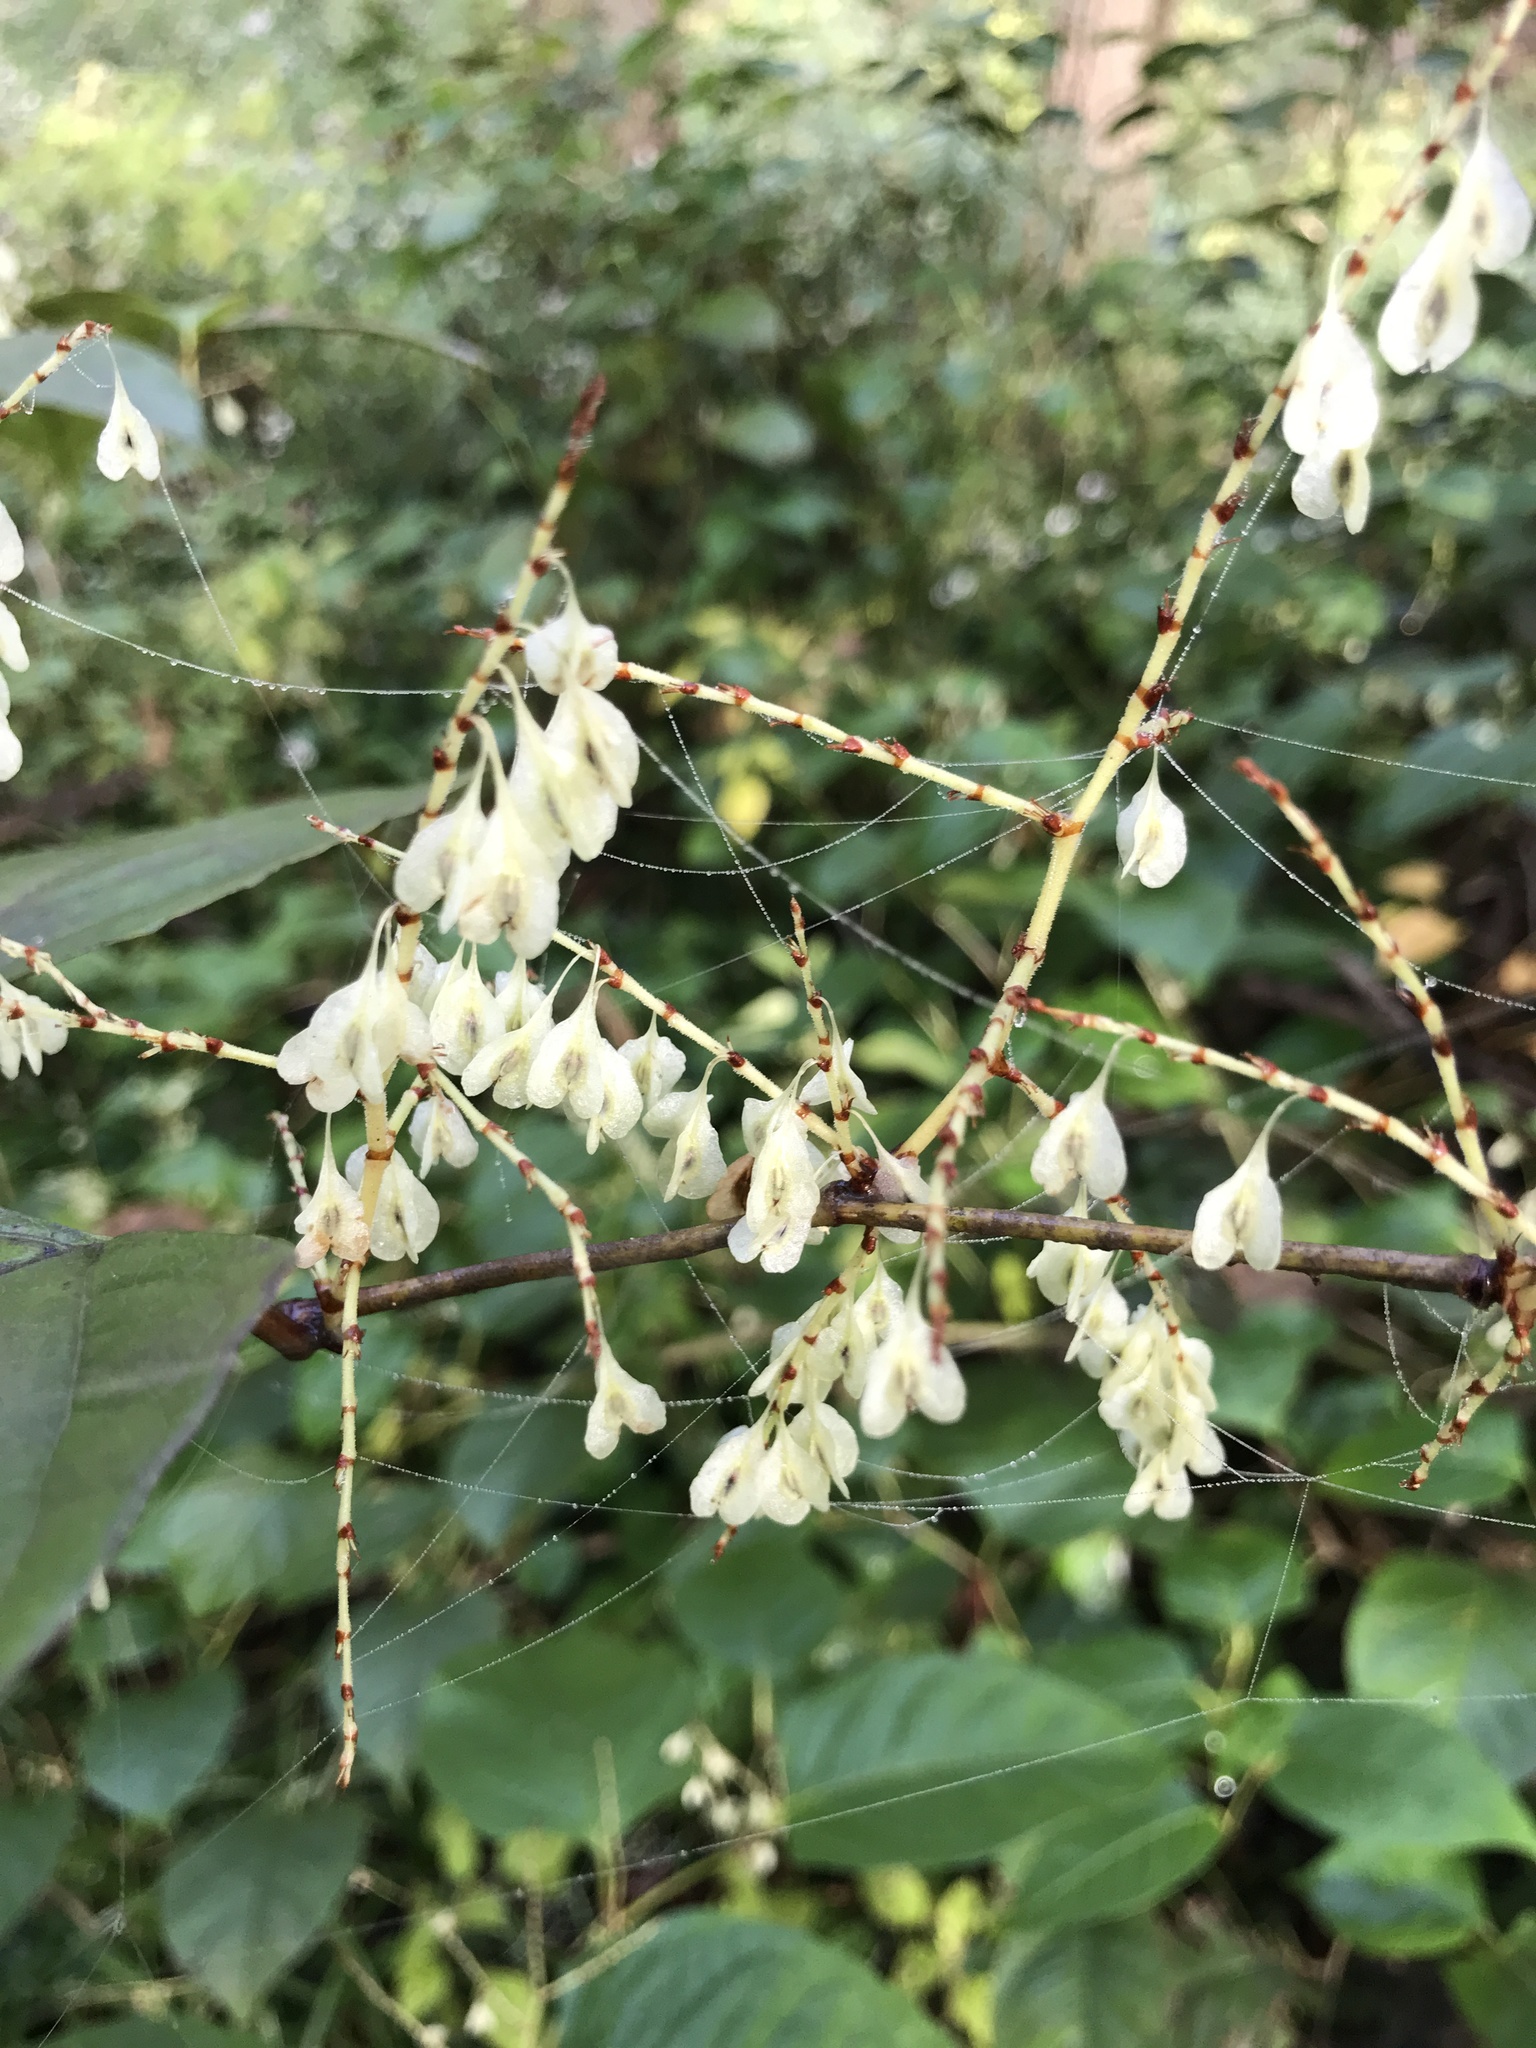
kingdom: Plantae
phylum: Tracheophyta
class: Magnoliopsida
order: Caryophyllales
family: Polygonaceae
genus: Reynoutria
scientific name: Reynoutria japonica
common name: Japanese knotweed
